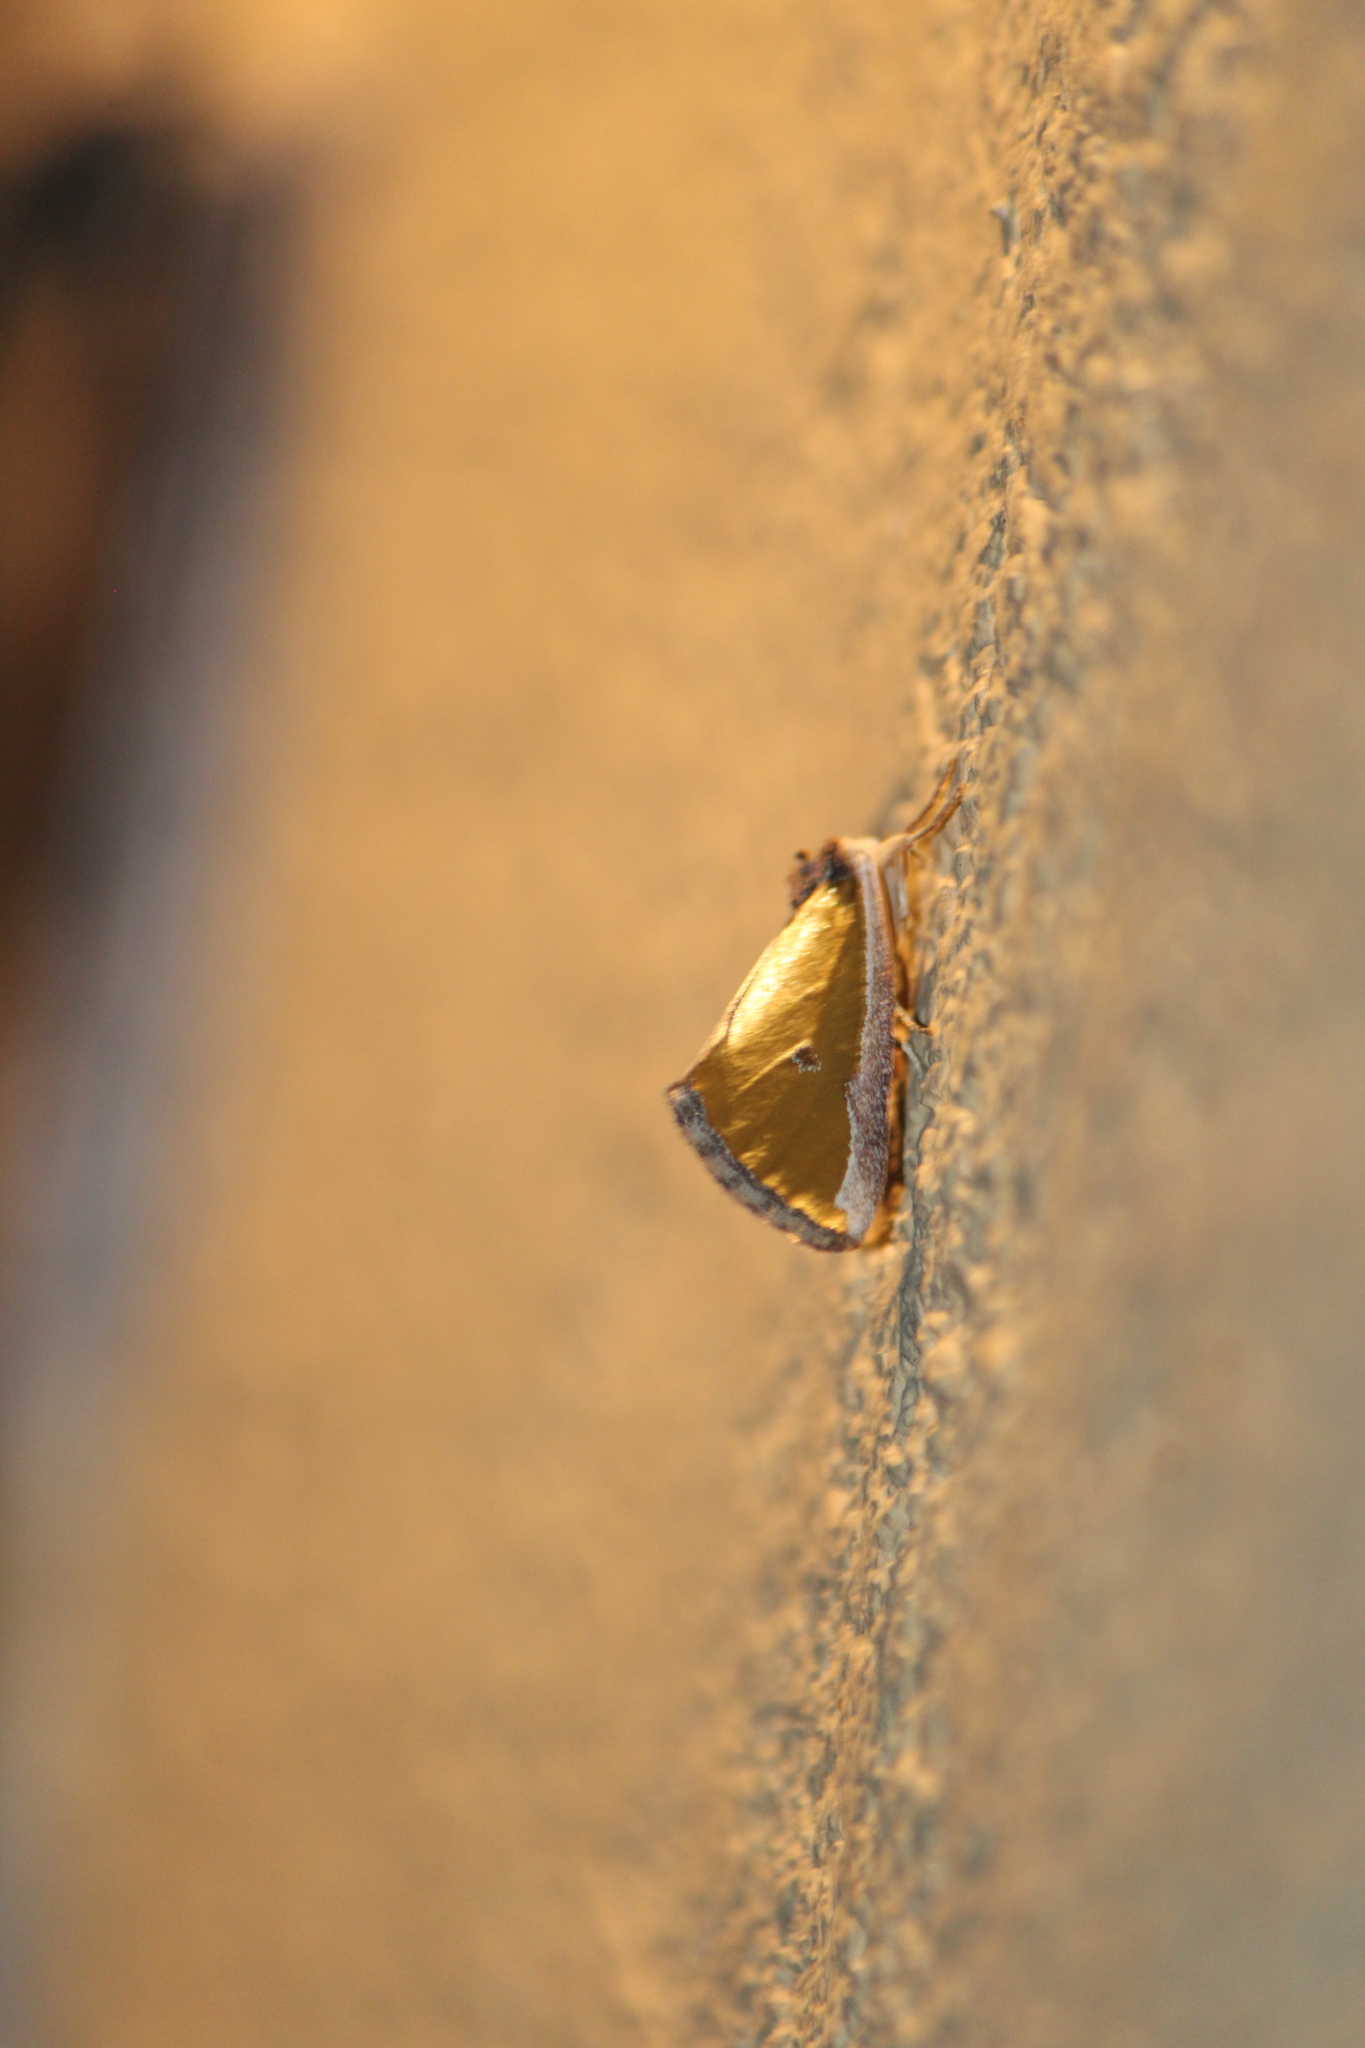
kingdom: Animalia
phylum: Arthropoda
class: Insecta
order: Lepidoptera
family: Noctuidae
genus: Neumoegenia
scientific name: Neumoegenia coronides
